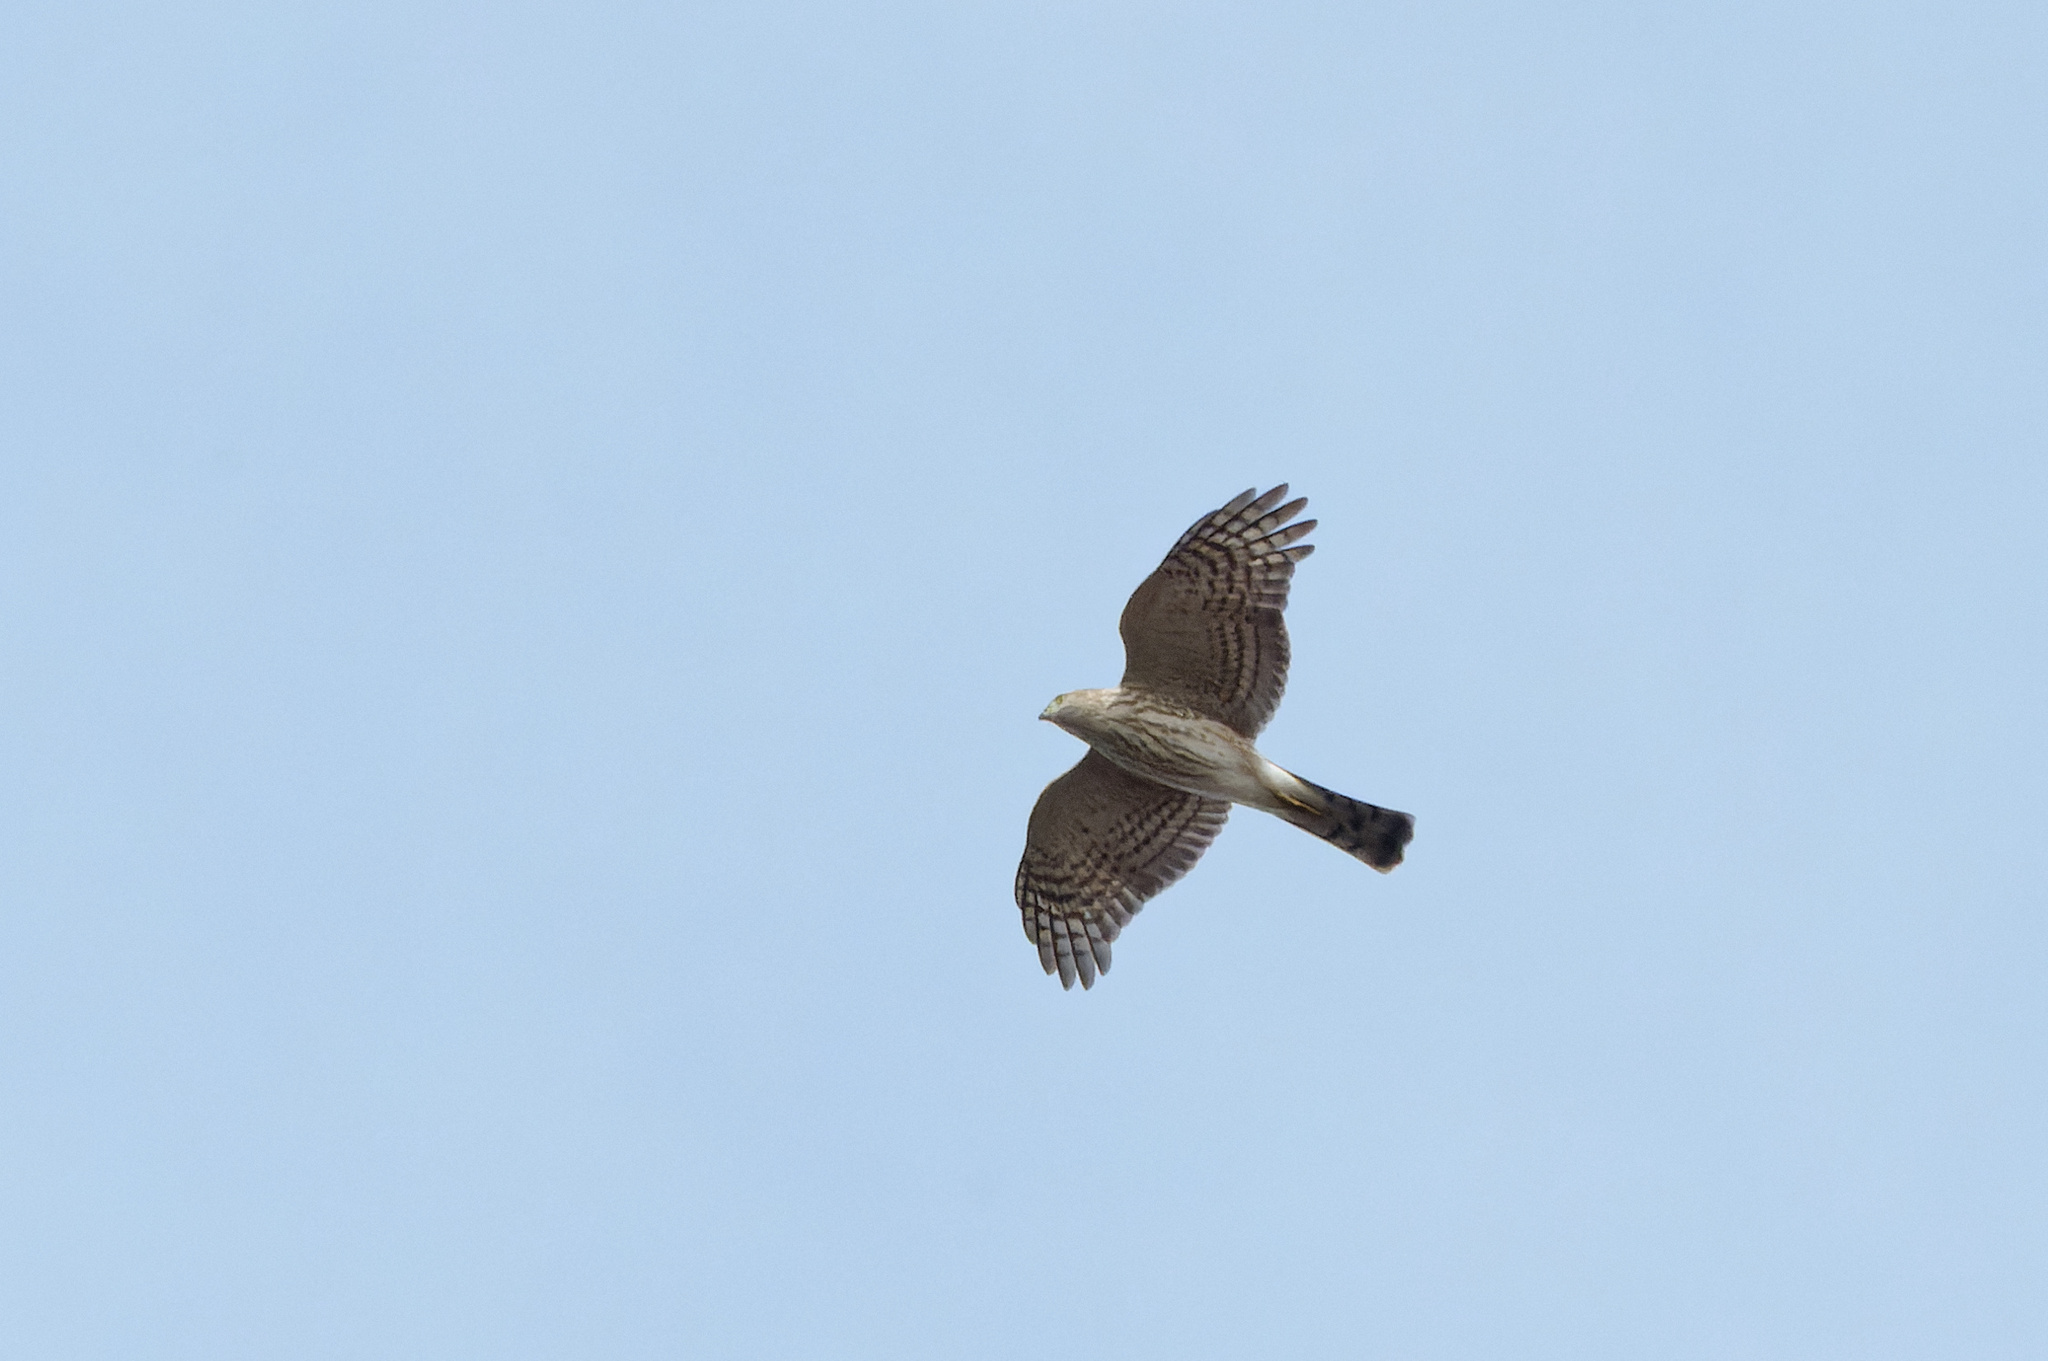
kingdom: Animalia
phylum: Chordata
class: Aves
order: Accipitriformes
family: Accipitridae
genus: Accipiter
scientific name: Accipiter striatus
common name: Sharp-shinned hawk
